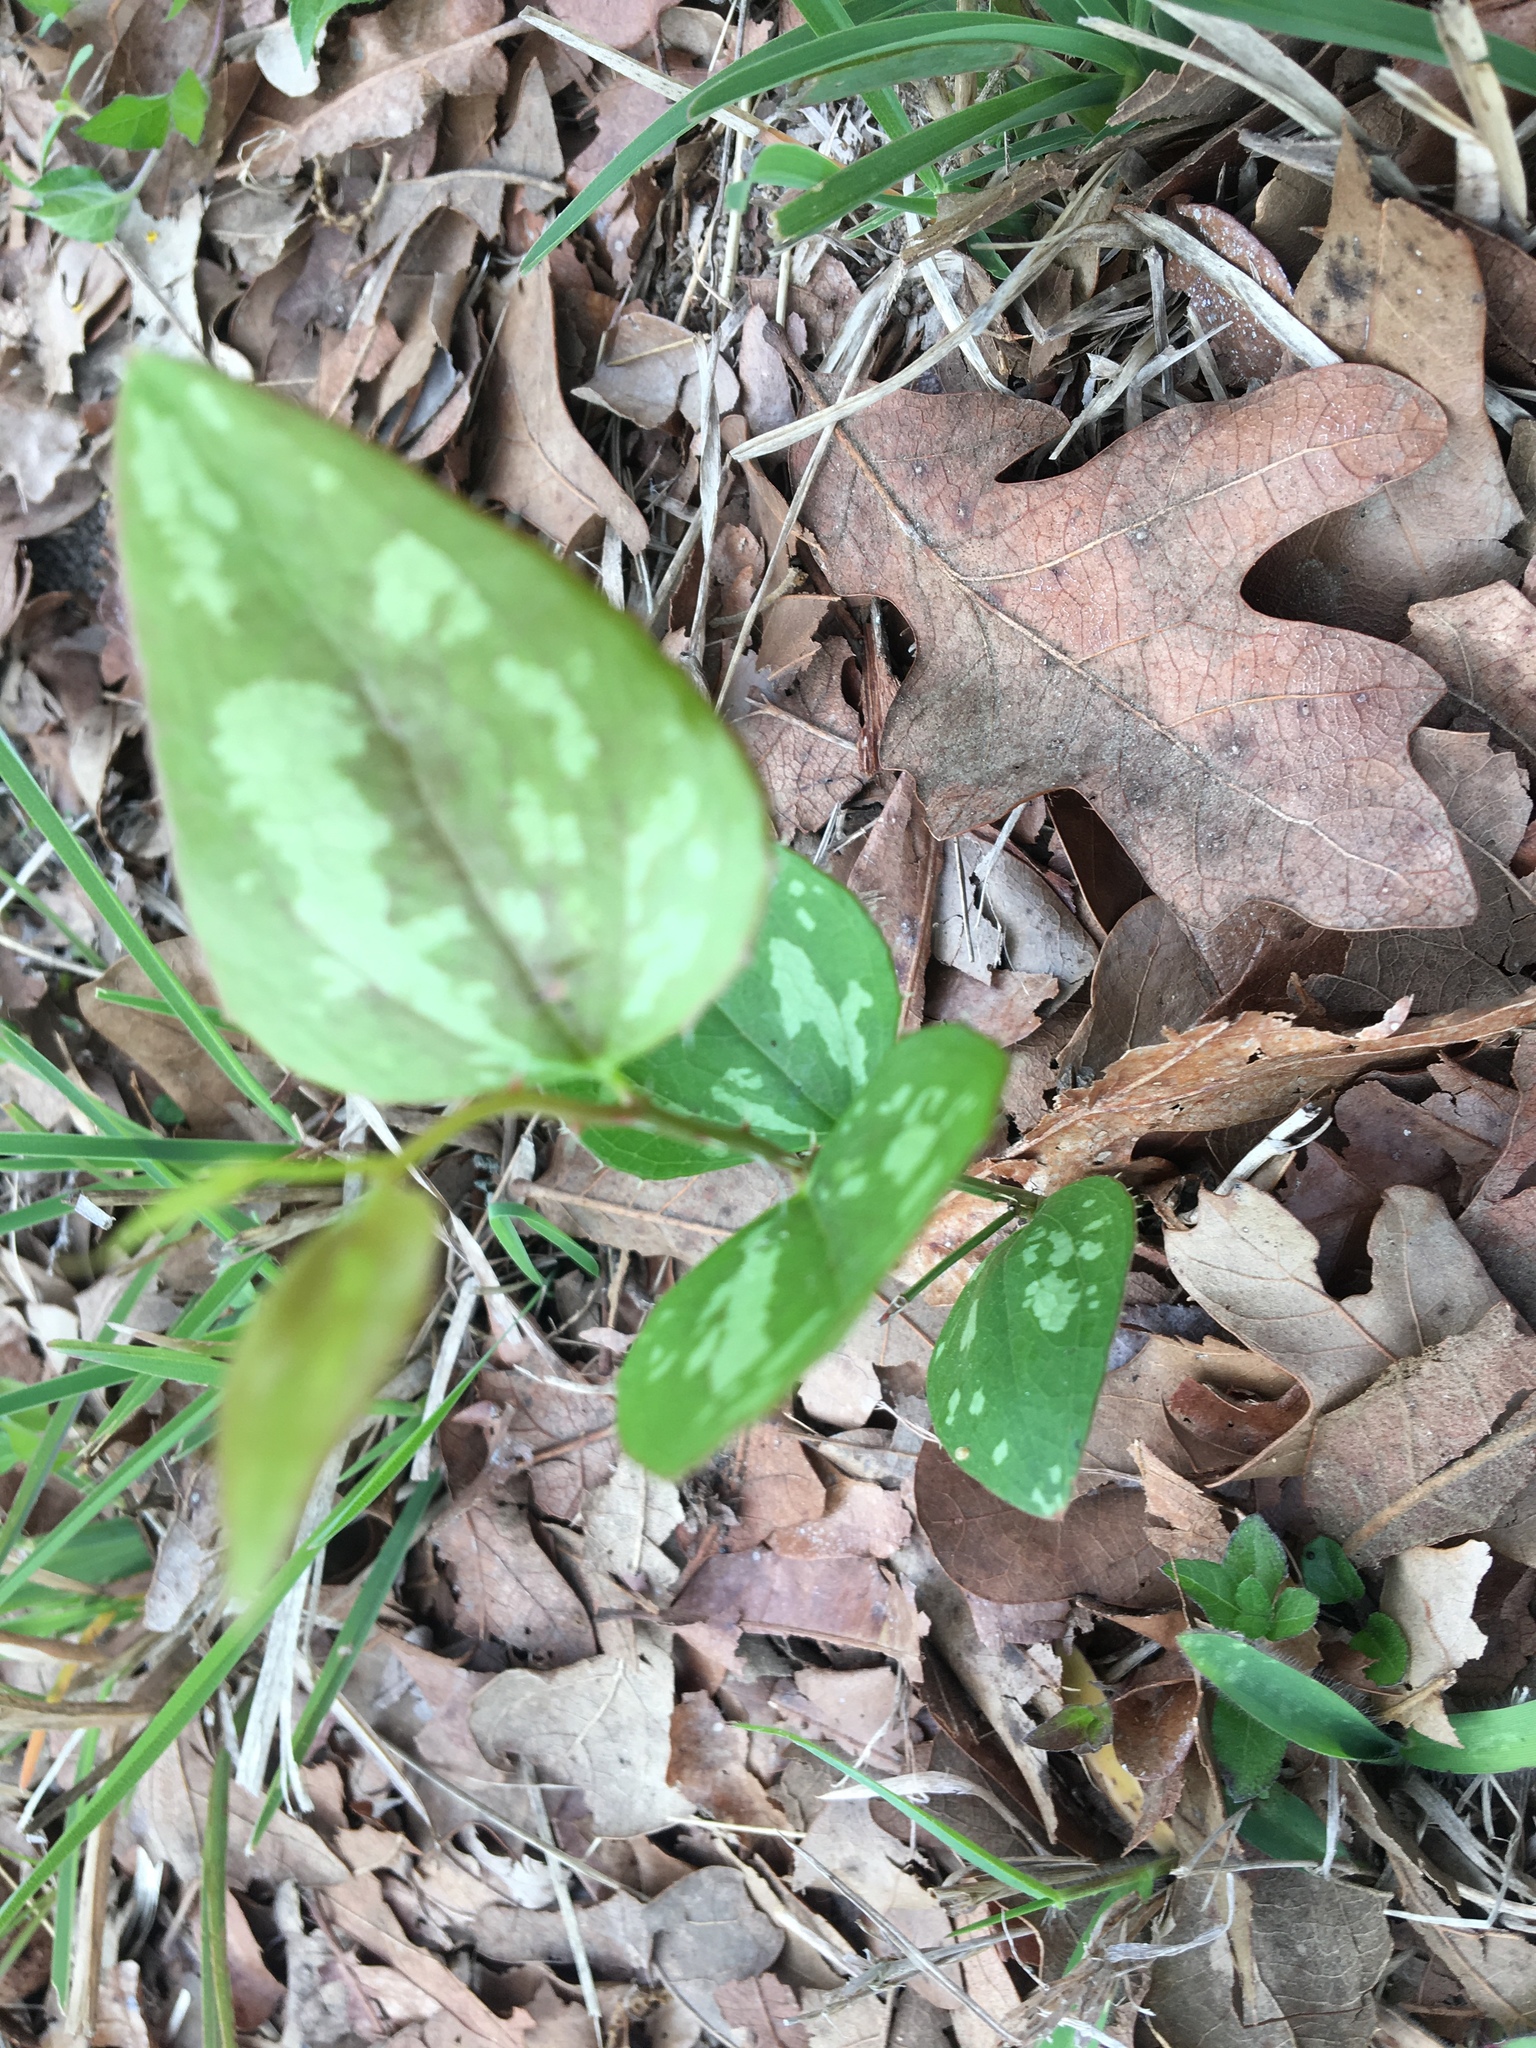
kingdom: Plantae
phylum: Tracheophyta
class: Liliopsida
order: Liliales
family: Smilacaceae
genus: Smilax
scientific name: Smilax bona-nox
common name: Catbrier
